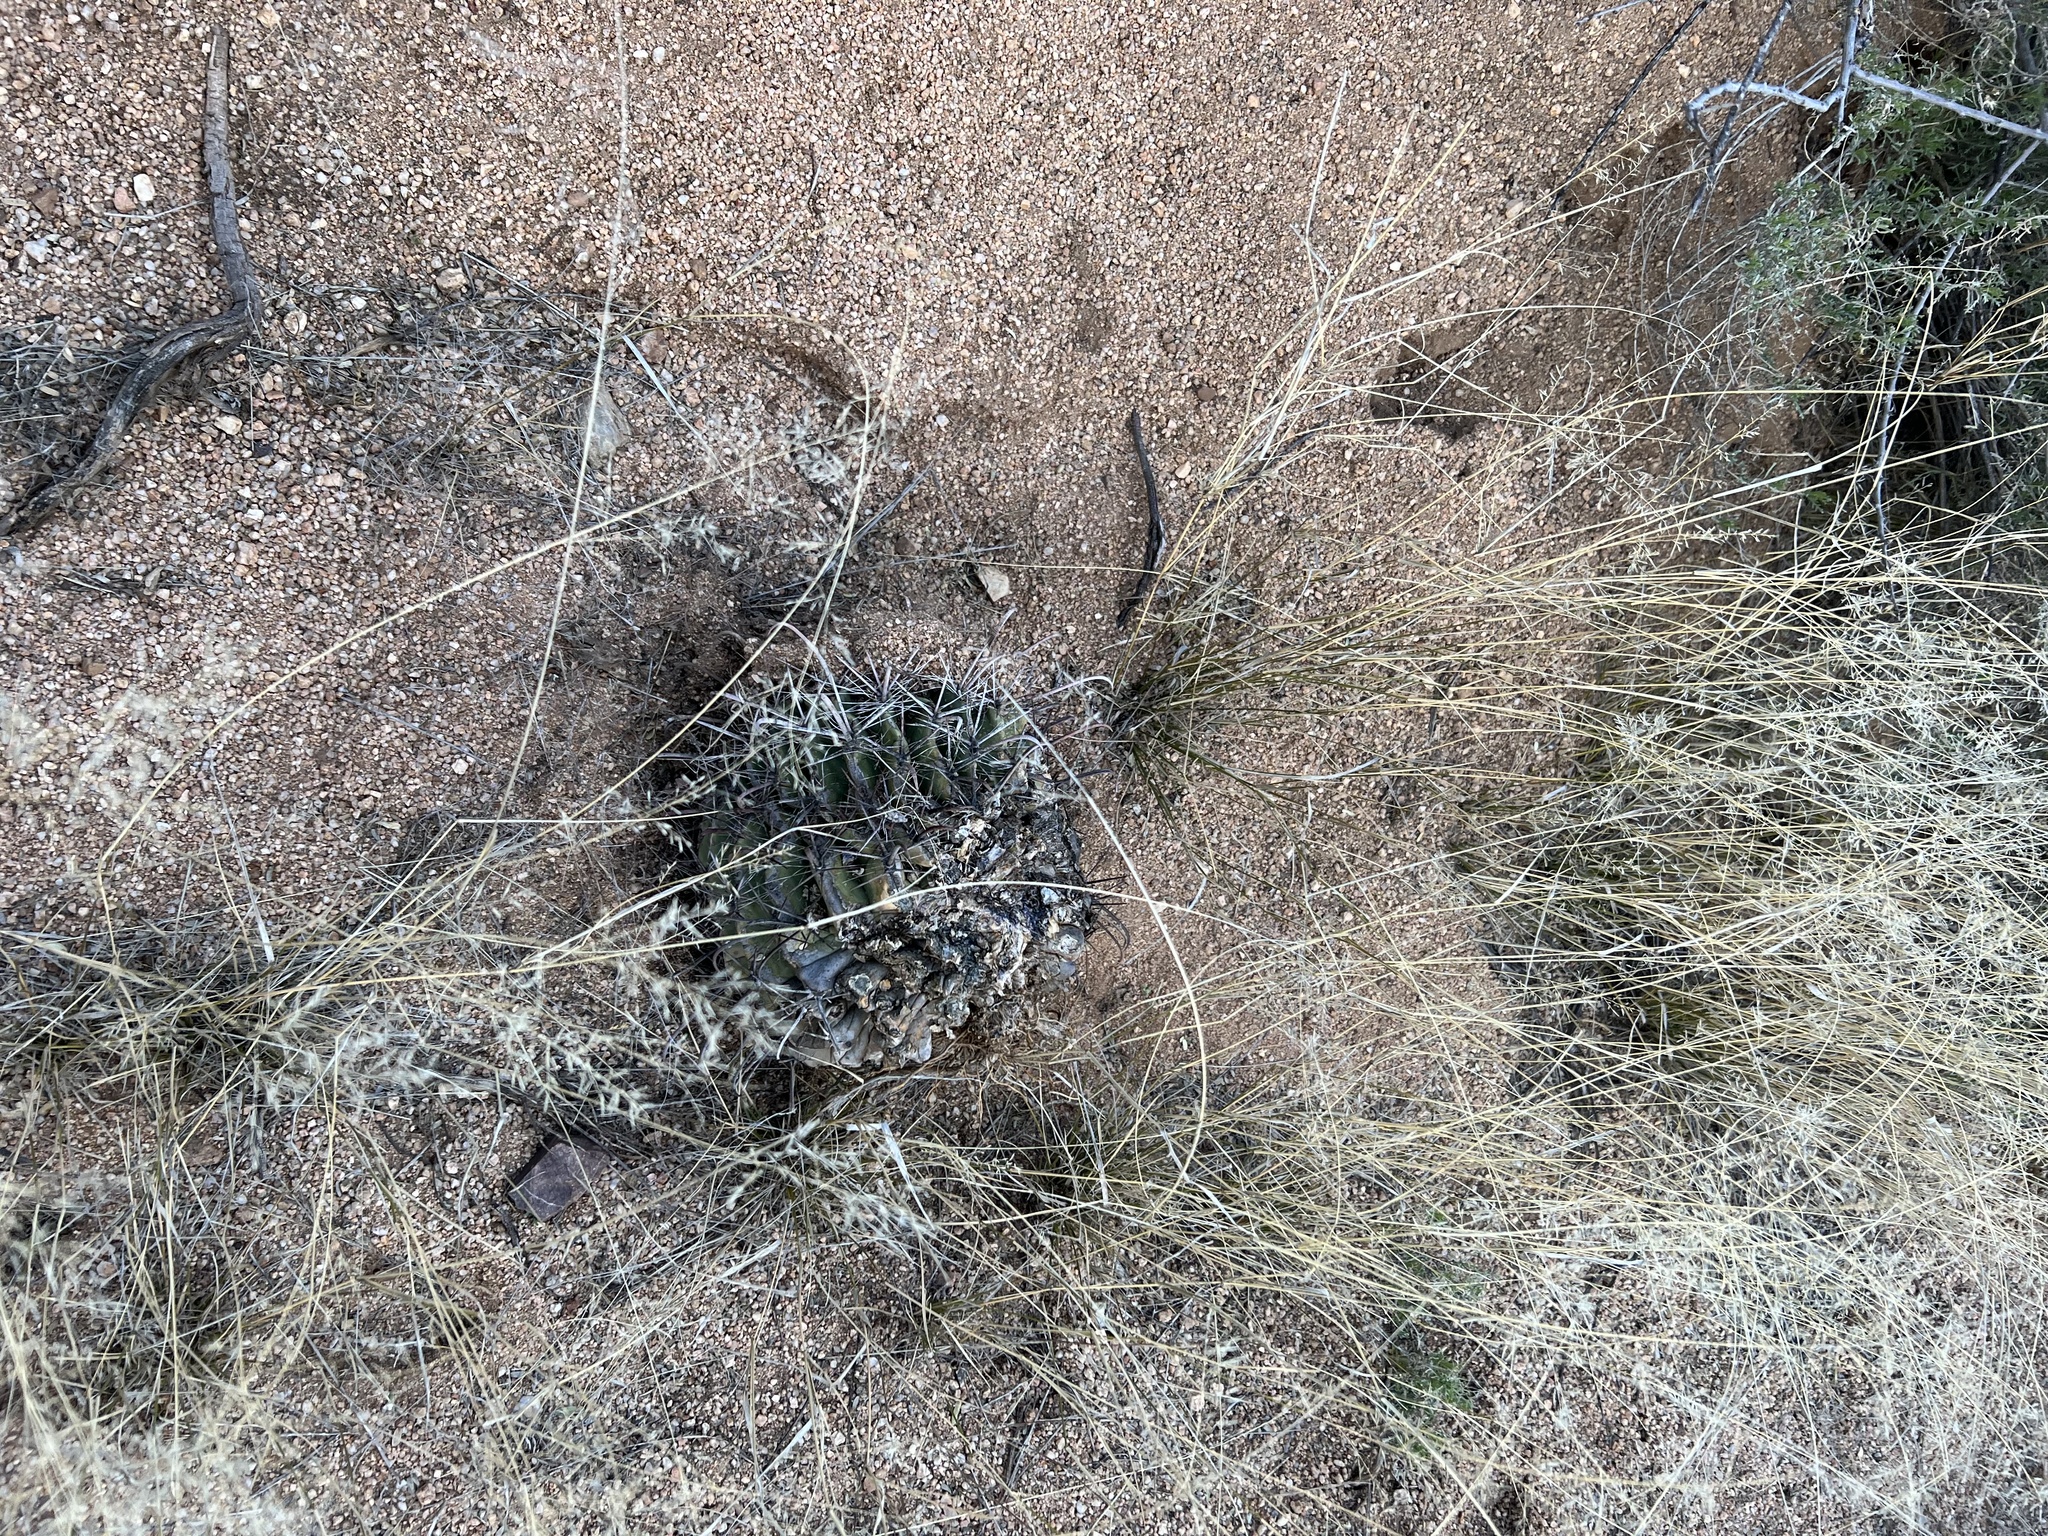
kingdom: Plantae
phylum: Tracheophyta
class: Magnoliopsida
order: Caryophyllales
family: Cactaceae
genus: Ferocactus
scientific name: Ferocactus wislizeni
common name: Candy barrel cactus
